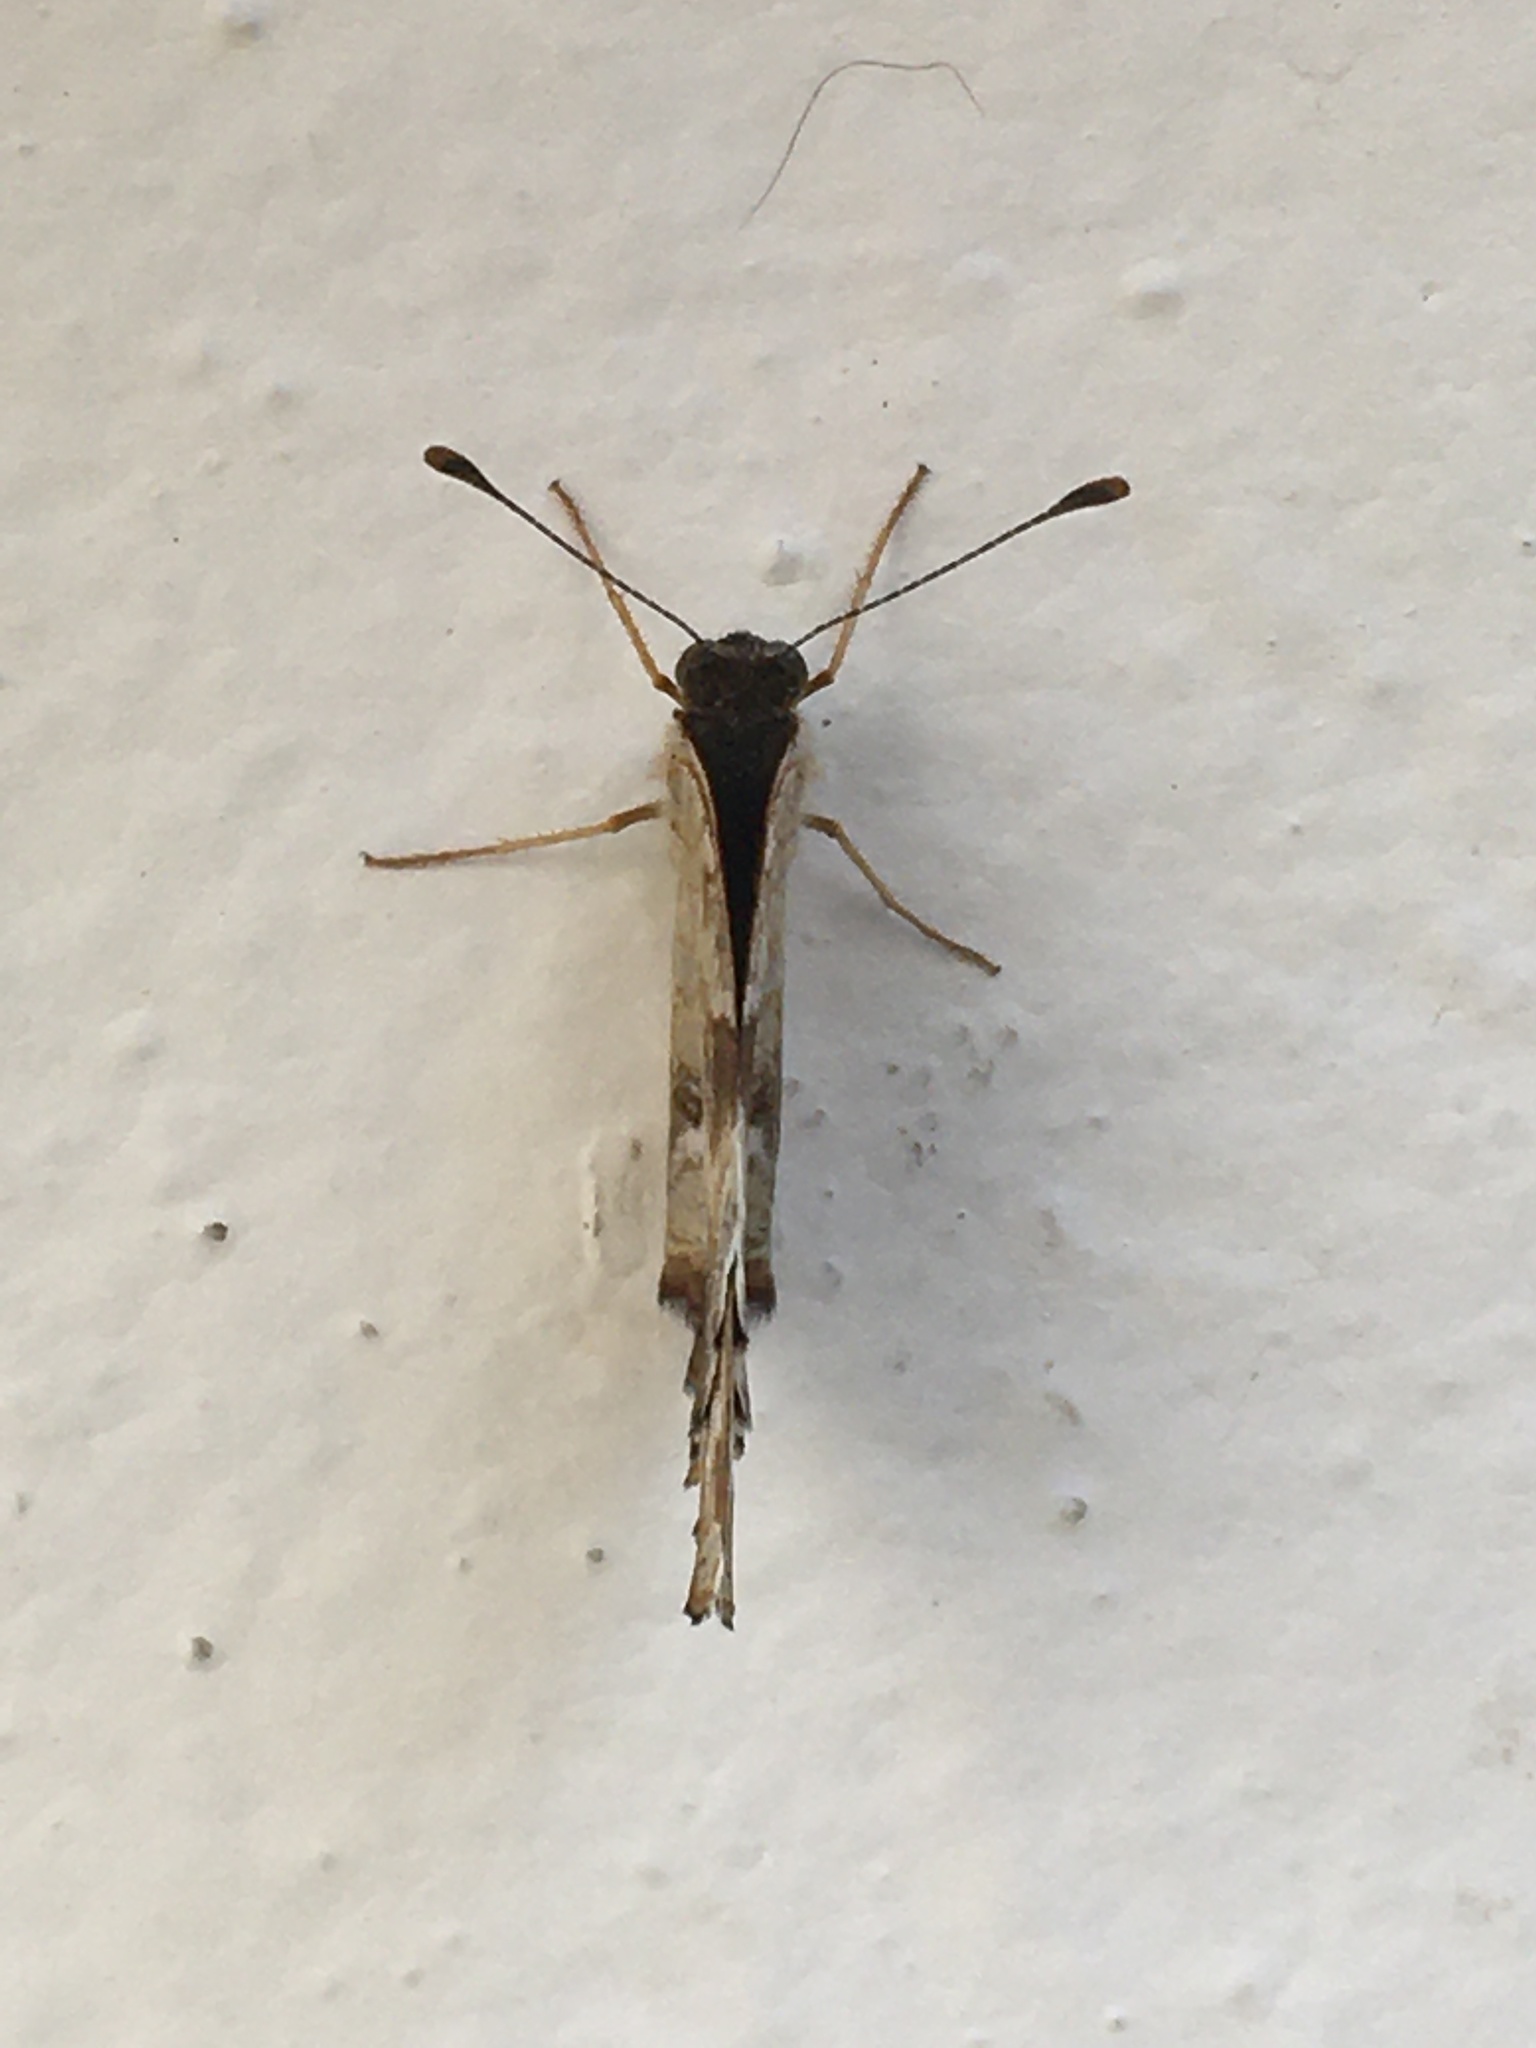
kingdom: Animalia
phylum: Arthropoda
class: Insecta
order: Lepidoptera
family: Nymphalidae
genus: Anthanassa
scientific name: Anthanassa texana
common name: Texan crescent
